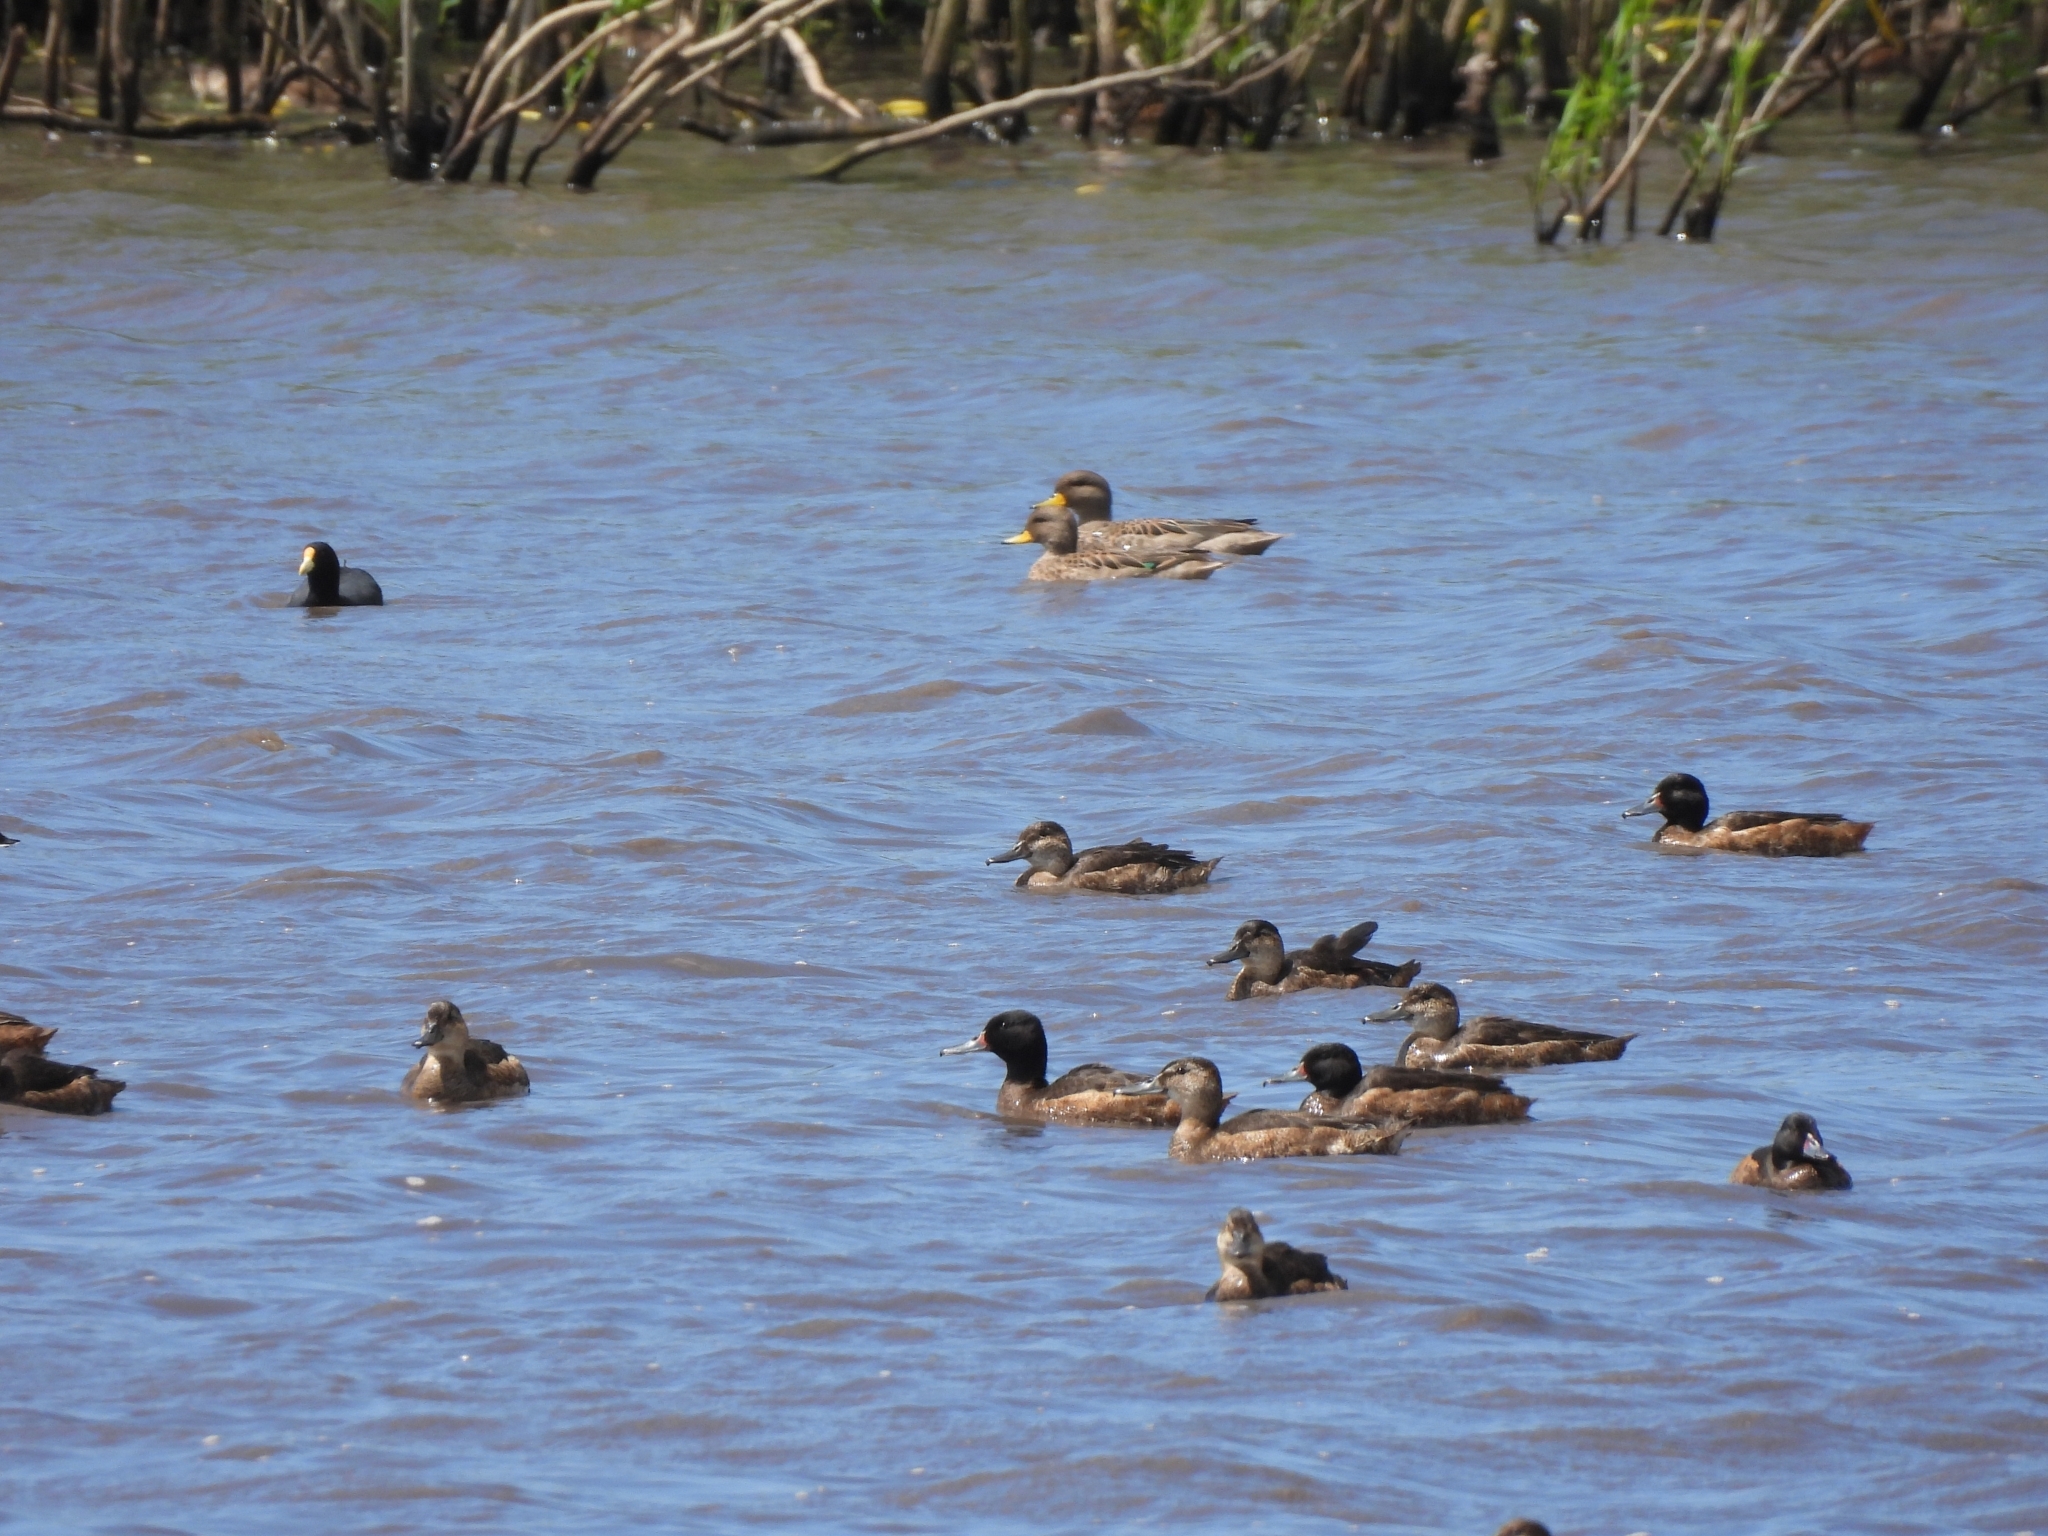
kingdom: Animalia
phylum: Chordata
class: Aves
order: Anseriformes
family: Anatidae
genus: Heteronetta
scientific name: Heteronetta atricapilla
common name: Black-headed duck
